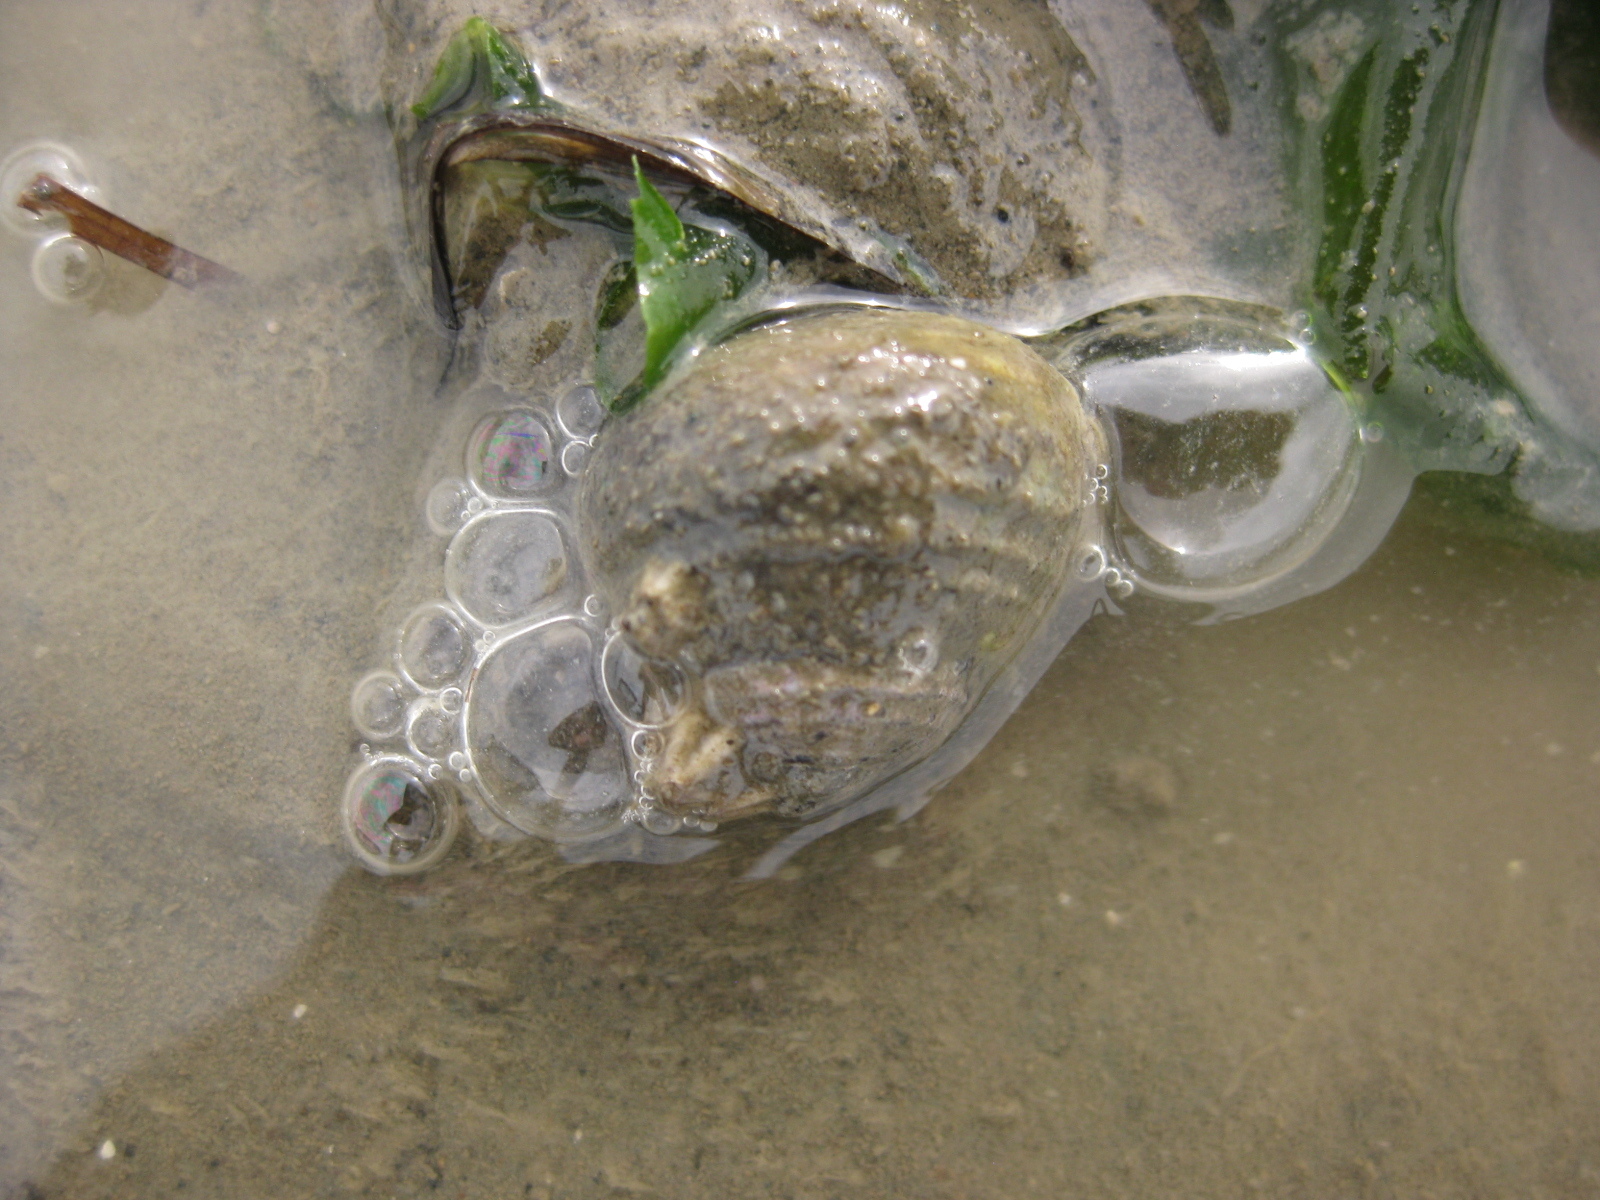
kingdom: Animalia
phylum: Mollusca
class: Gastropoda
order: Trochida
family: Trochidae
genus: Diloma
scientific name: Diloma subrostratum
